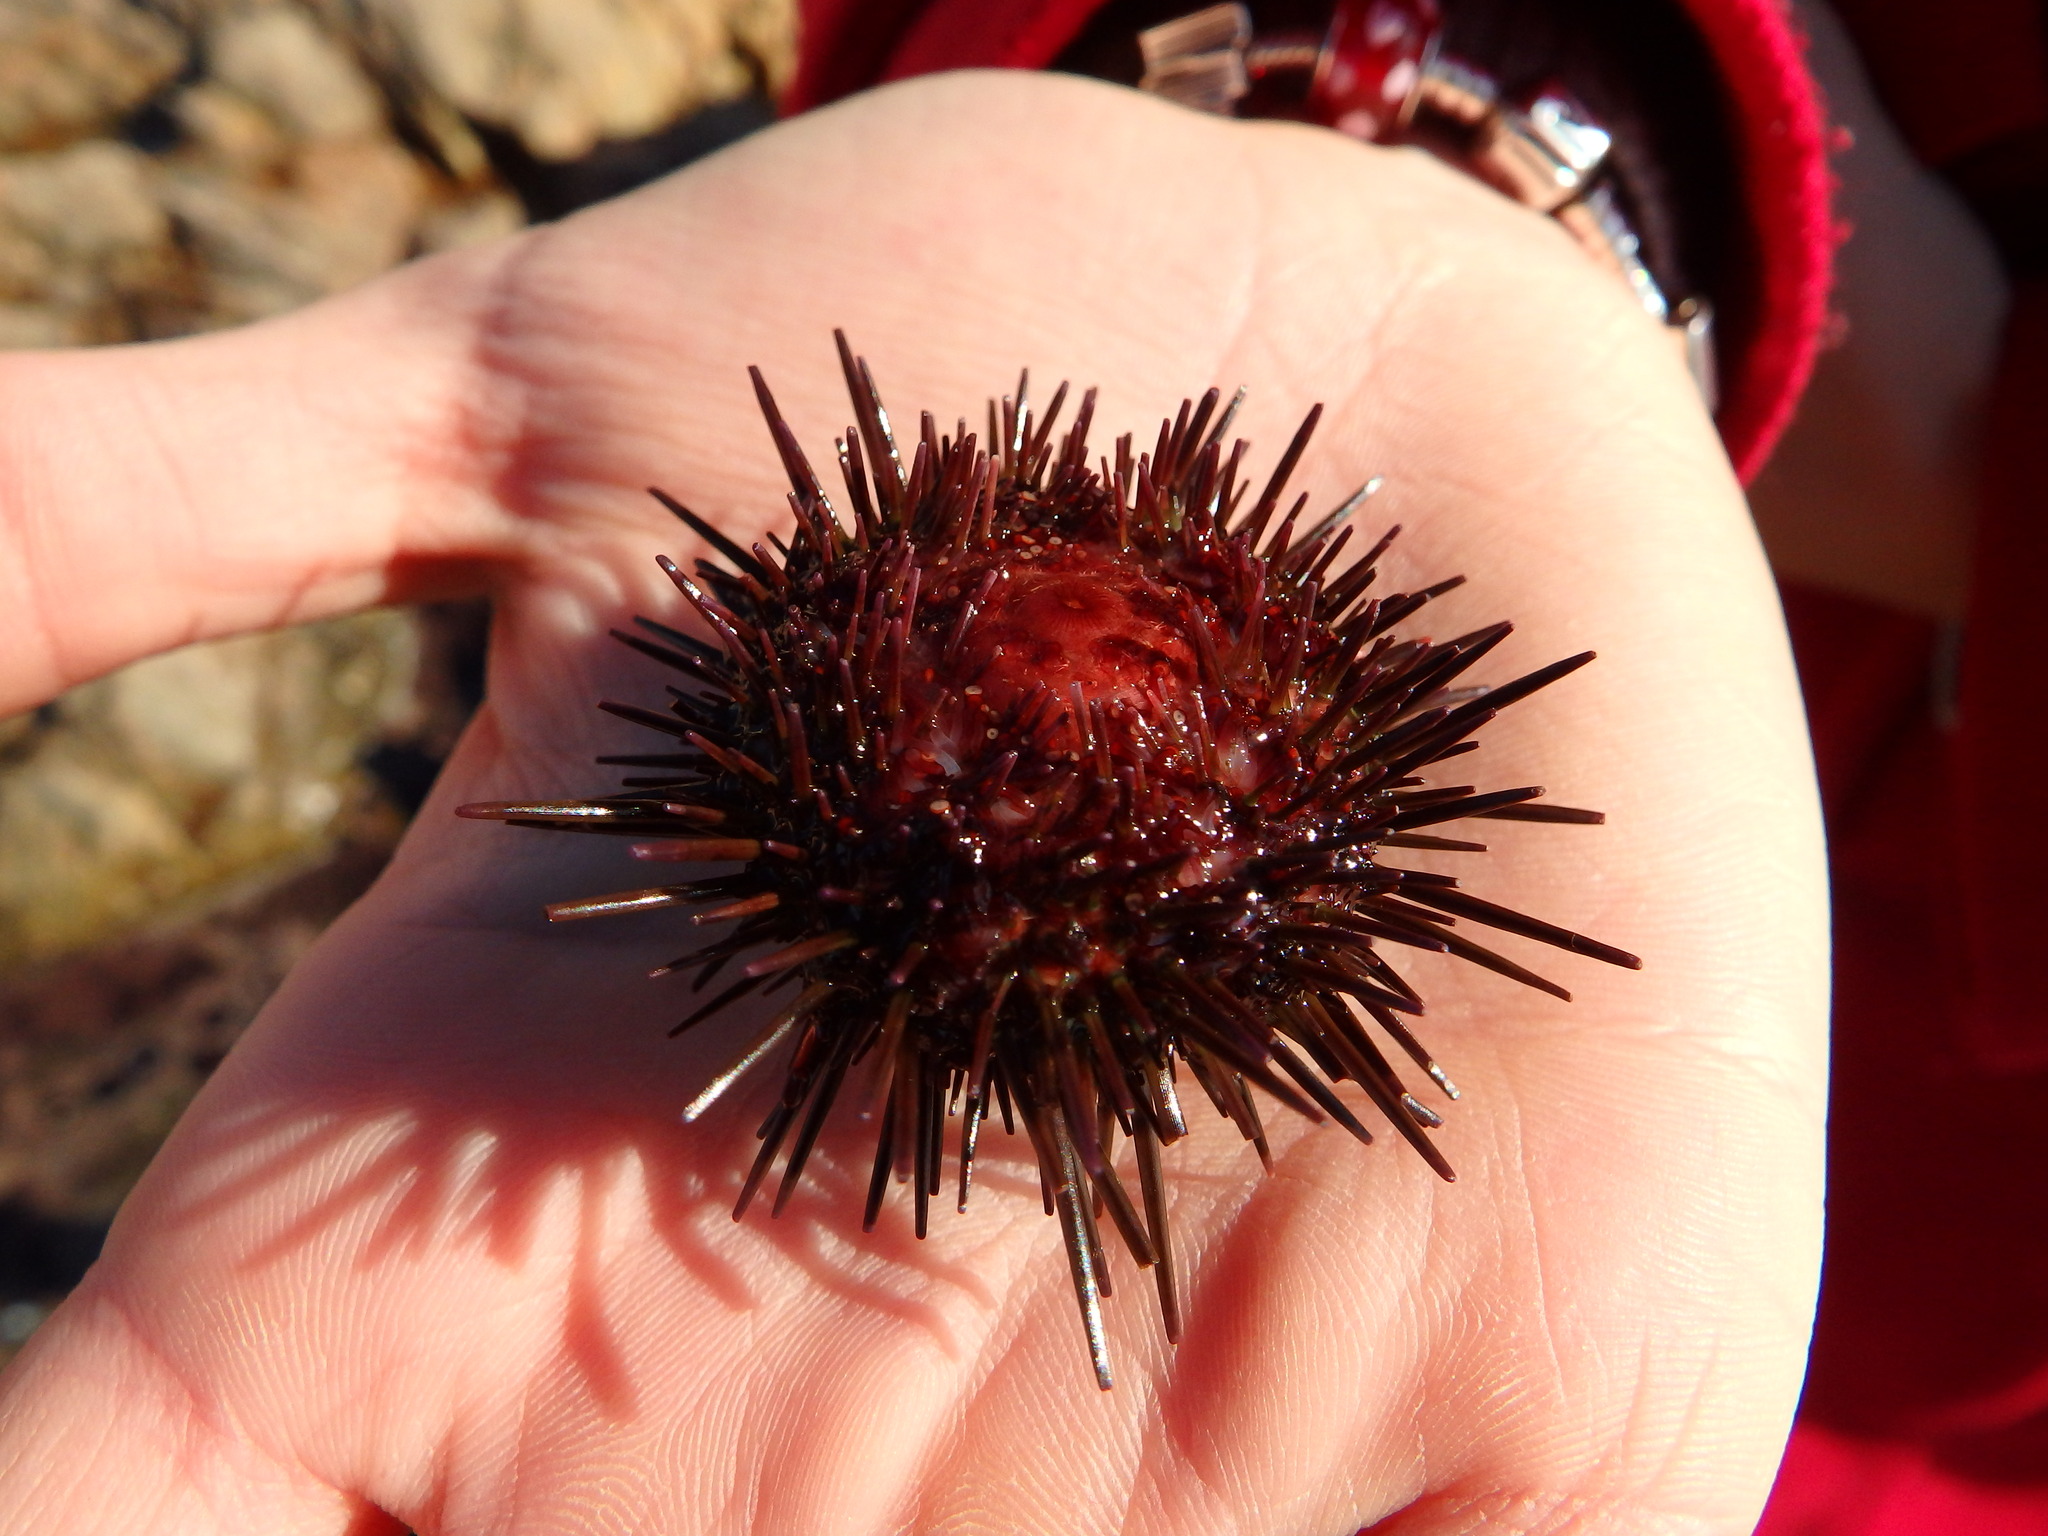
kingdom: Animalia
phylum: Echinodermata
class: Echinoidea
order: Camarodonta
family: Parechinidae
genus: Paracentrotus
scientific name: Paracentrotus lividus
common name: Purple sea urchin
